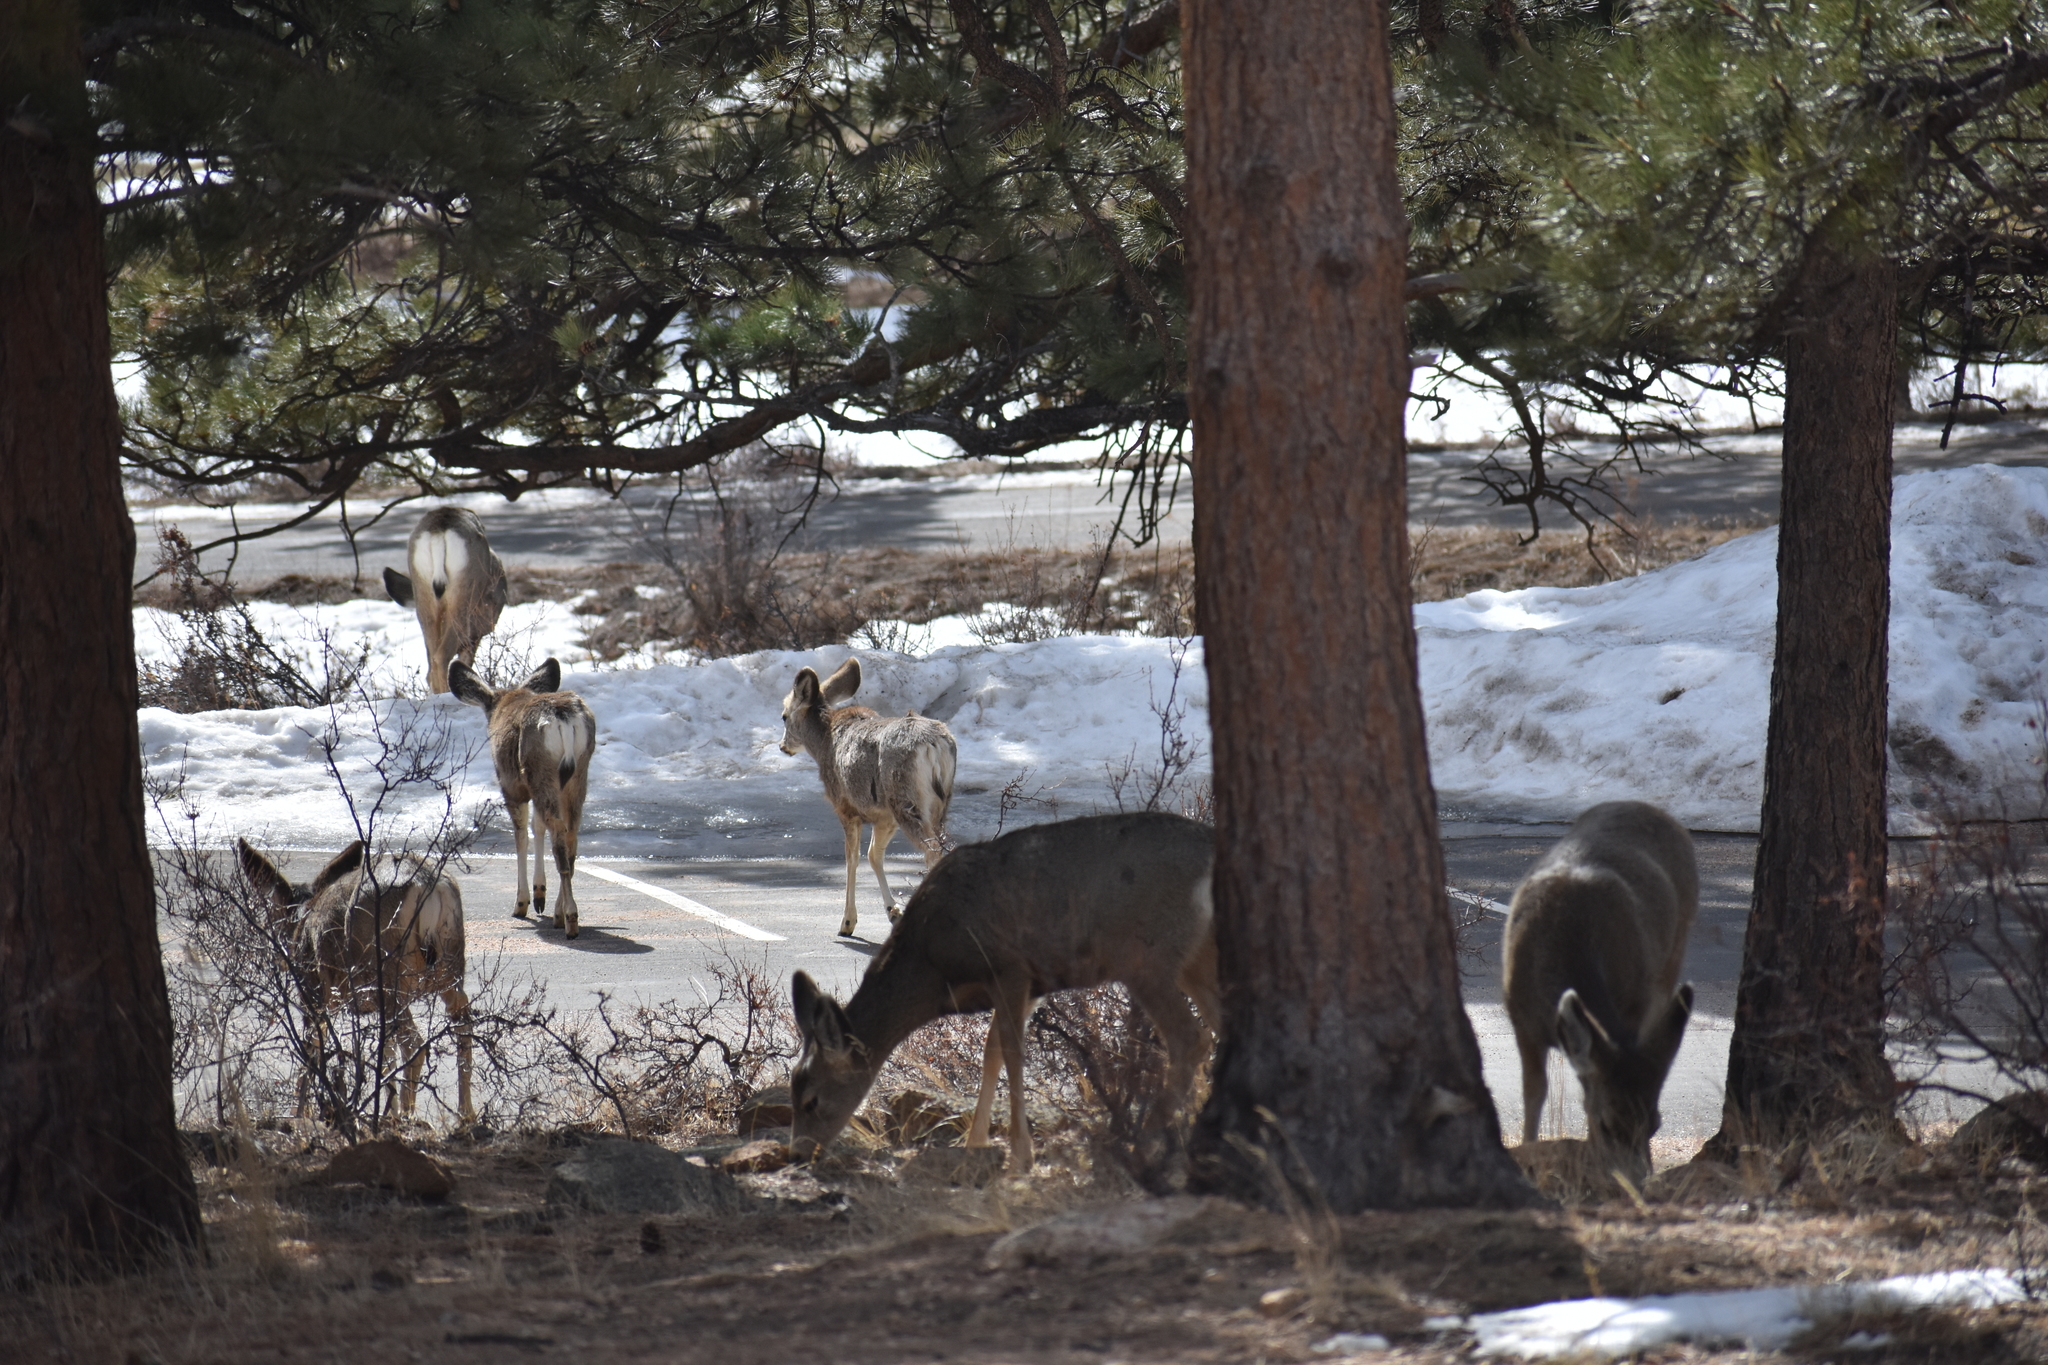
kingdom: Animalia
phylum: Chordata
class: Mammalia
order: Artiodactyla
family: Cervidae
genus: Odocoileus
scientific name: Odocoileus hemionus
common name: Mule deer
